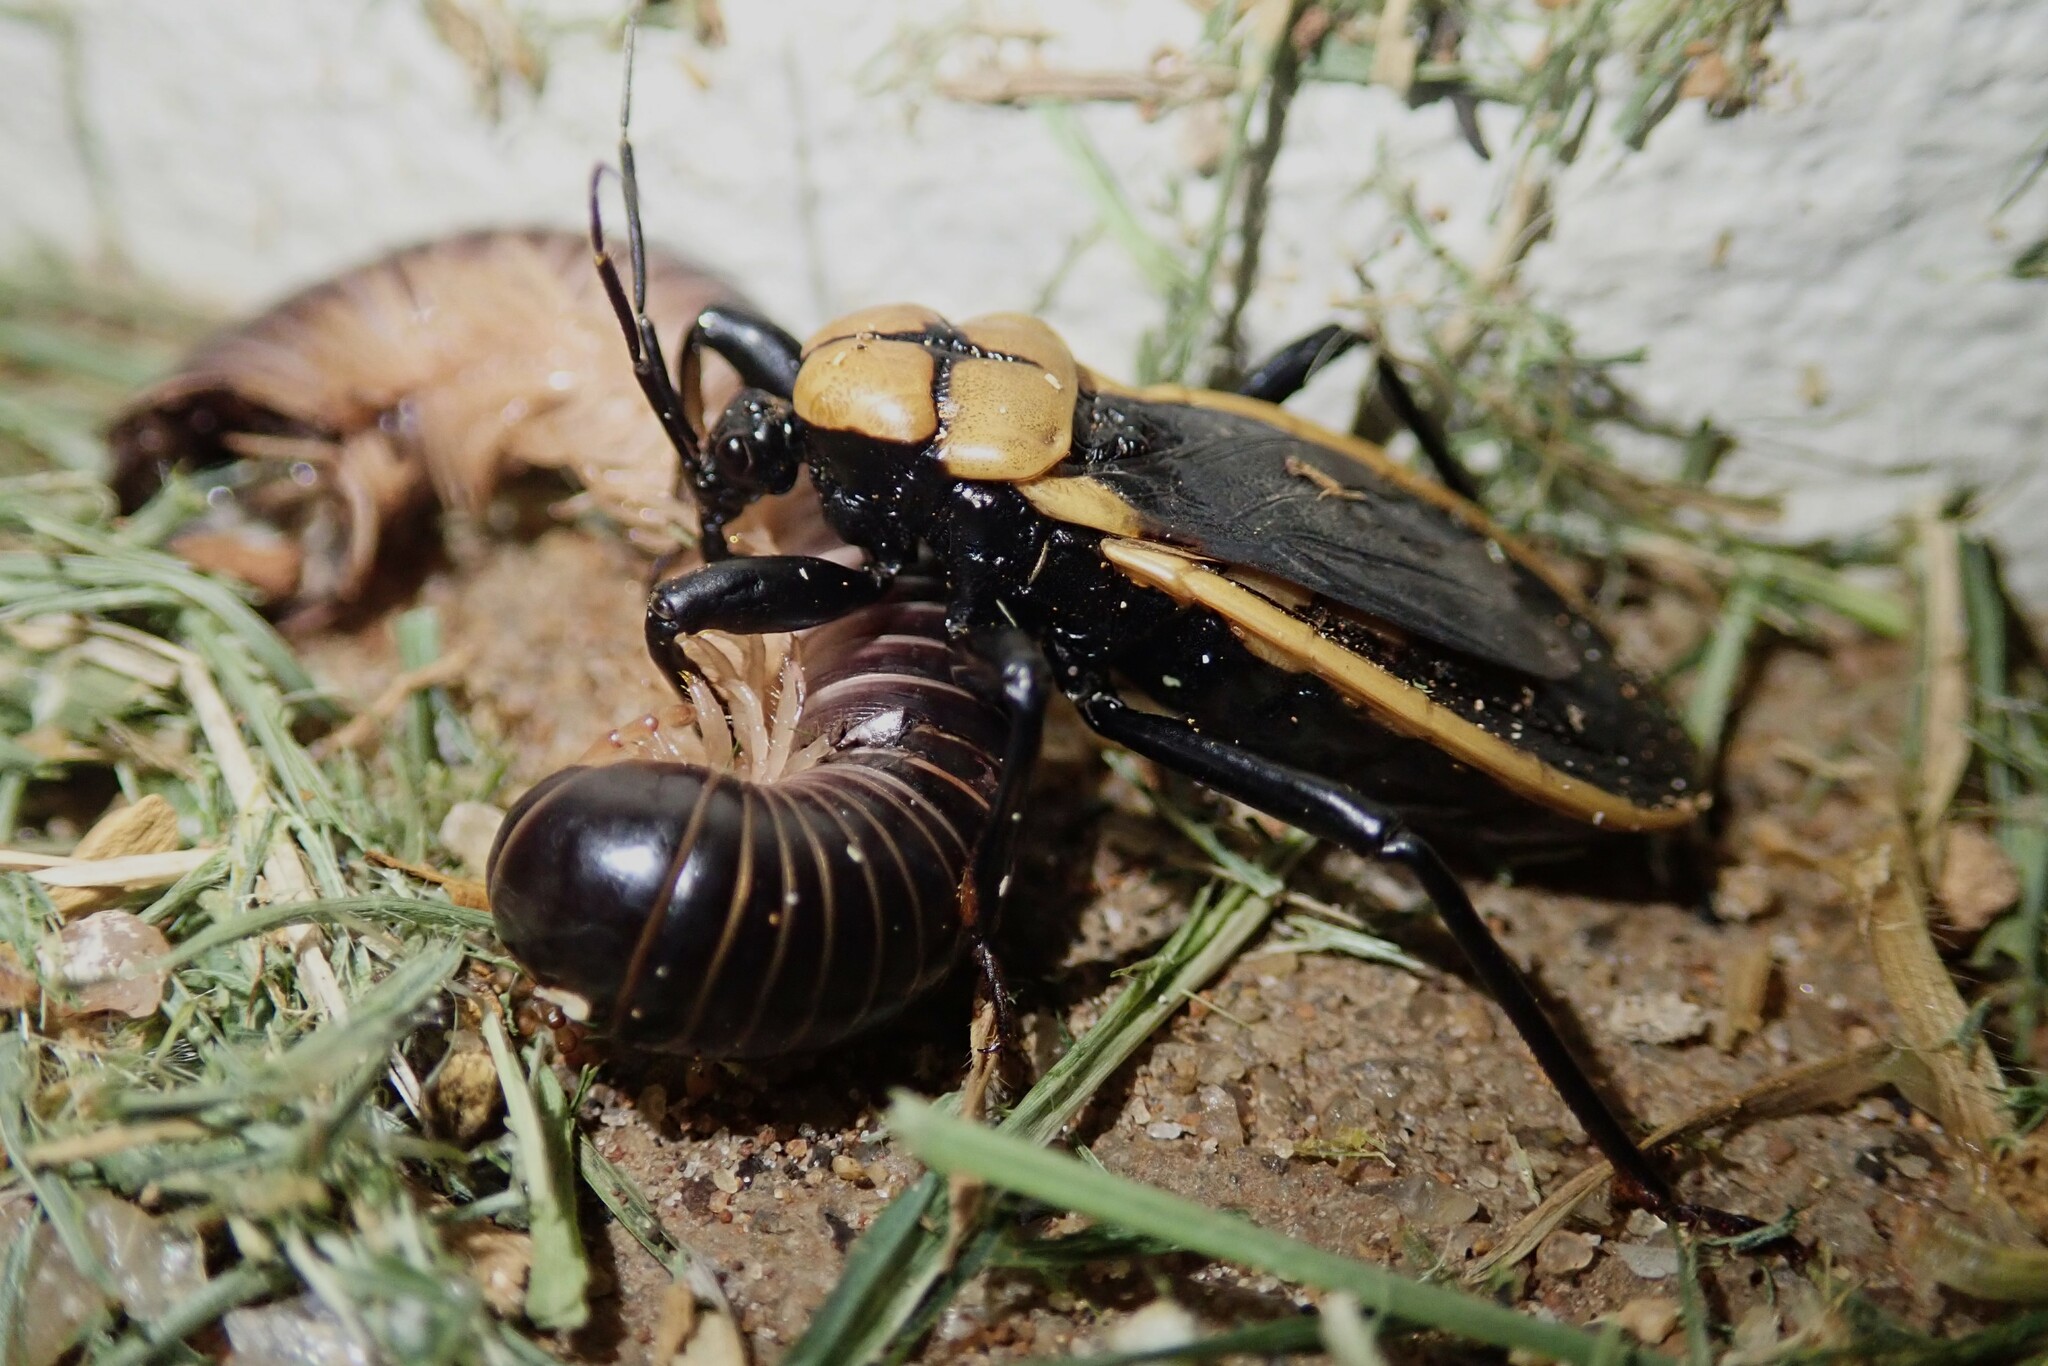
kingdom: Animalia
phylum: Arthropoda
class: Insecta
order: Hemiptera
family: Reduviidae
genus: Ectrichodia
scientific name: Ectrichodia crux
